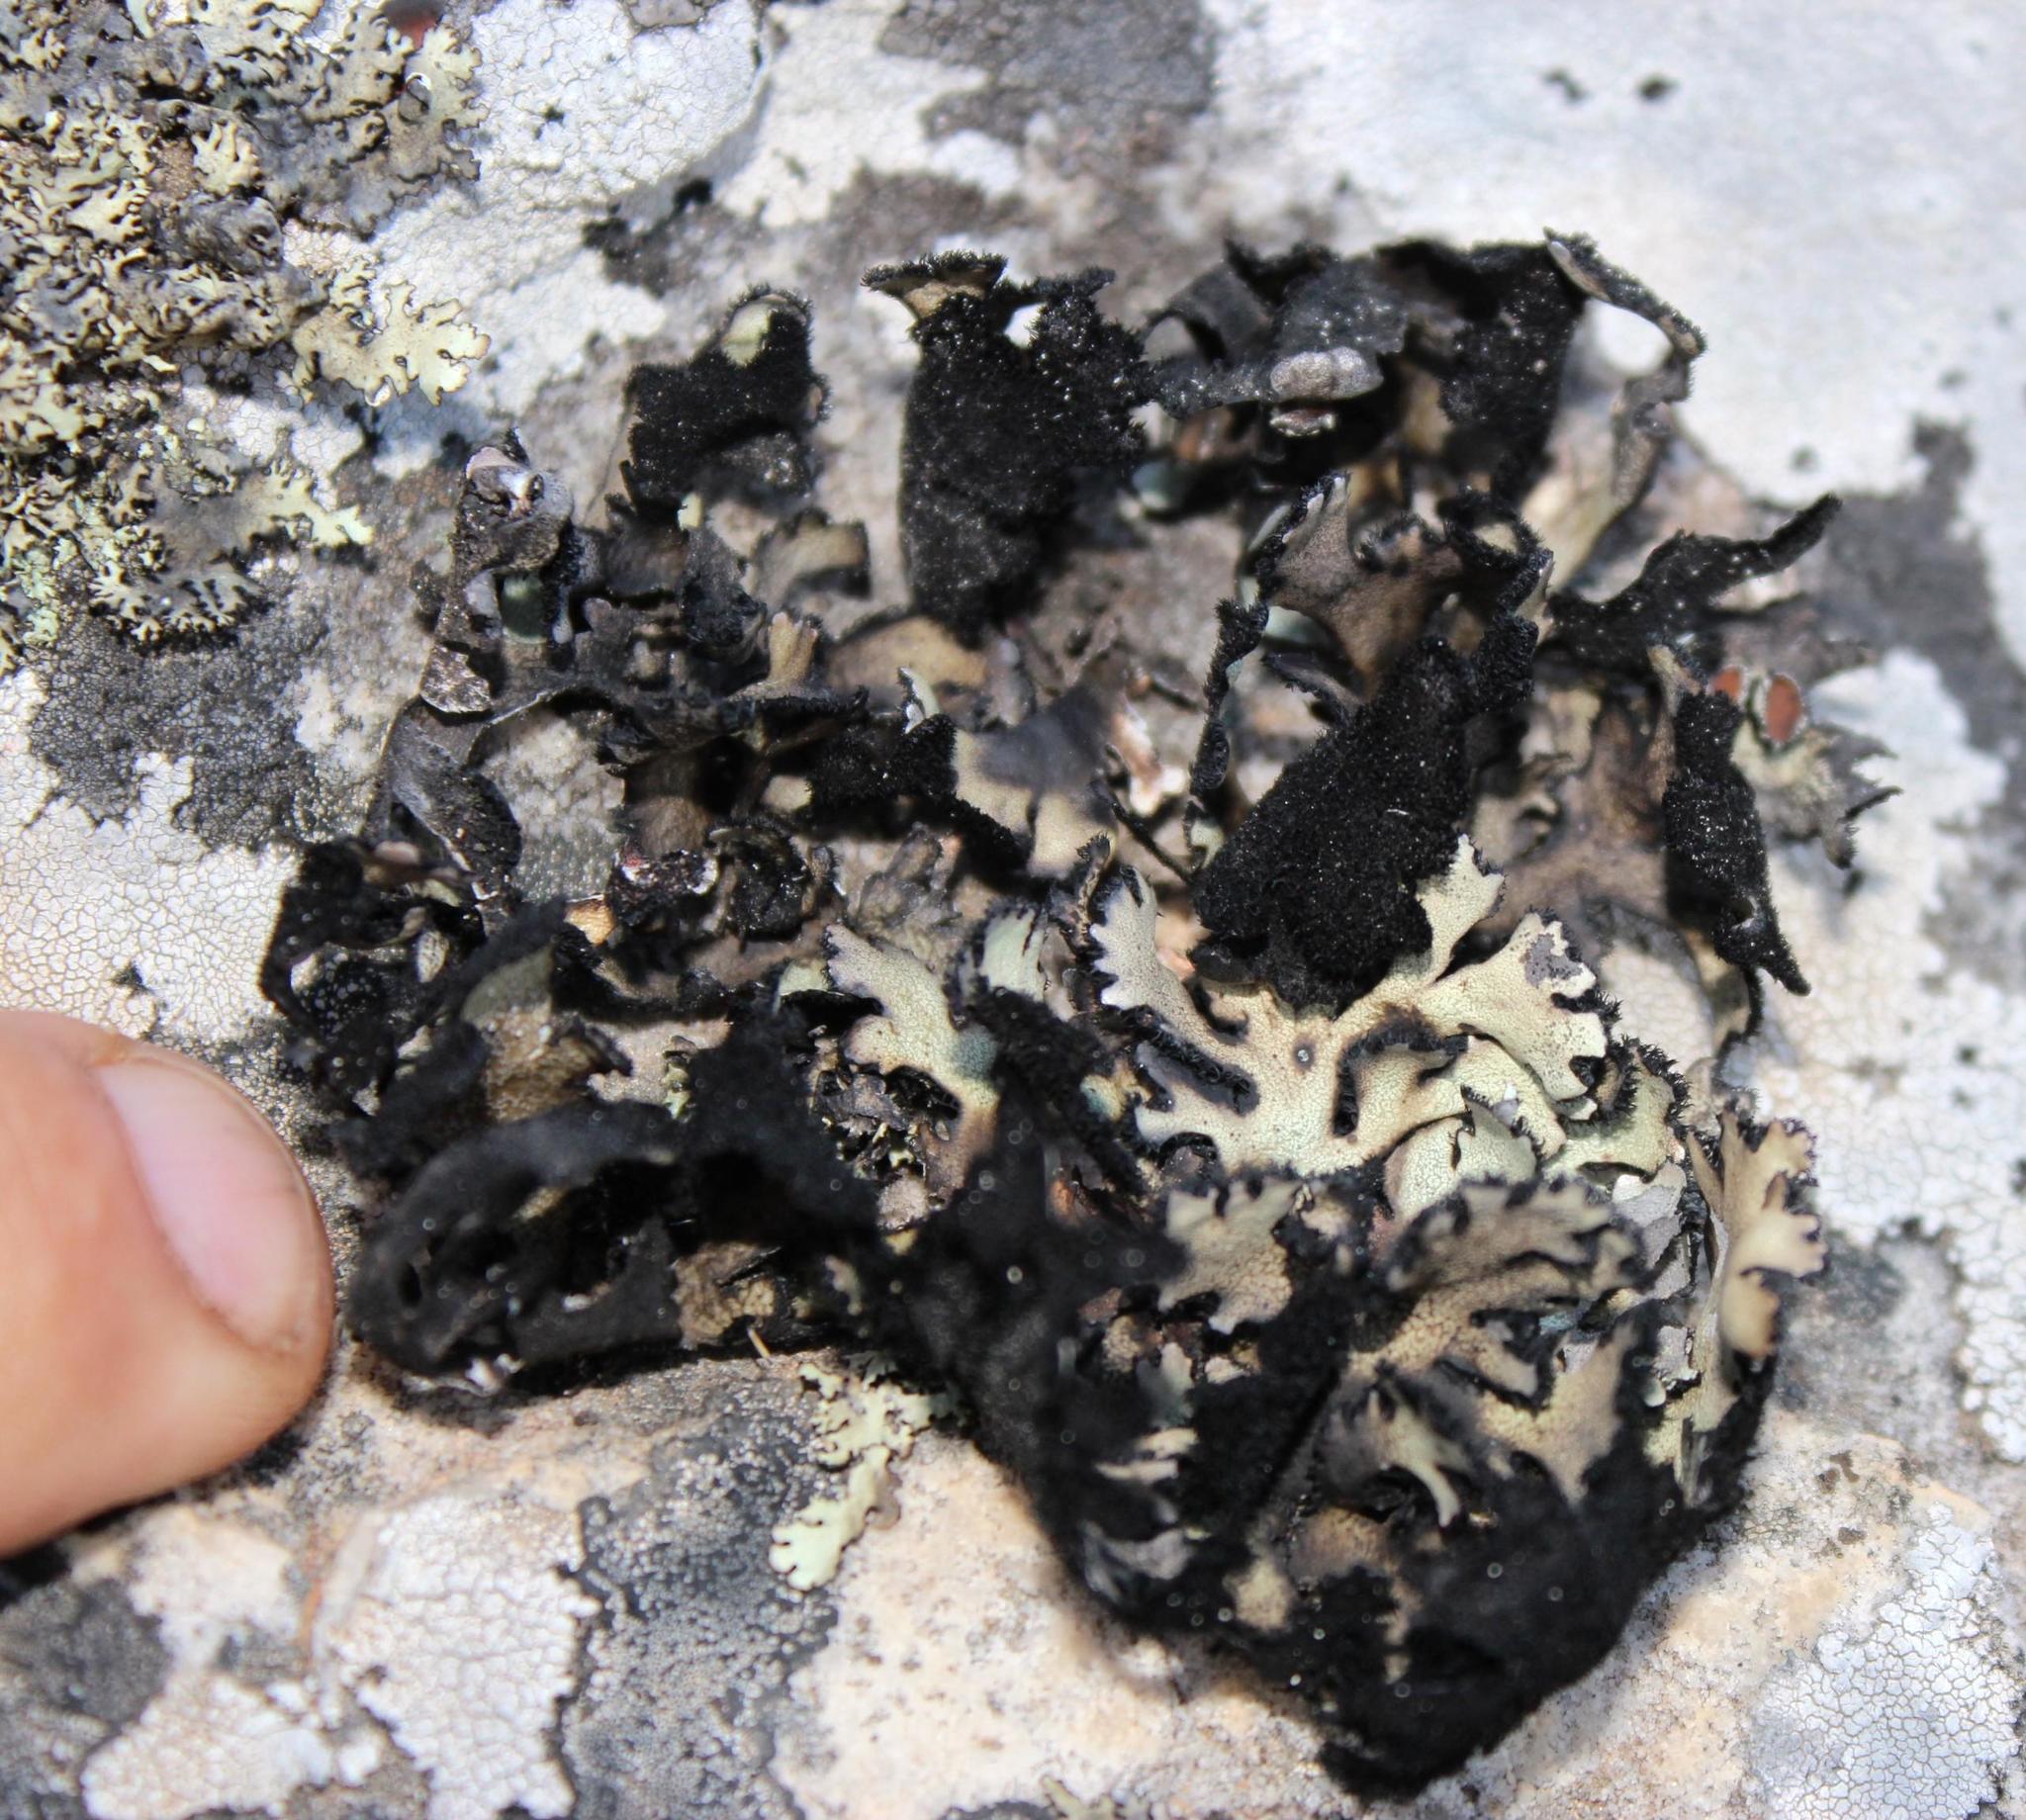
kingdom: Fungi
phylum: Ascomycota
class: Lecanoromycetes
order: Lecanorales
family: Parmeliaceae
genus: Xanthoparmelia
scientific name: Xanthoparmelia hottentotta
